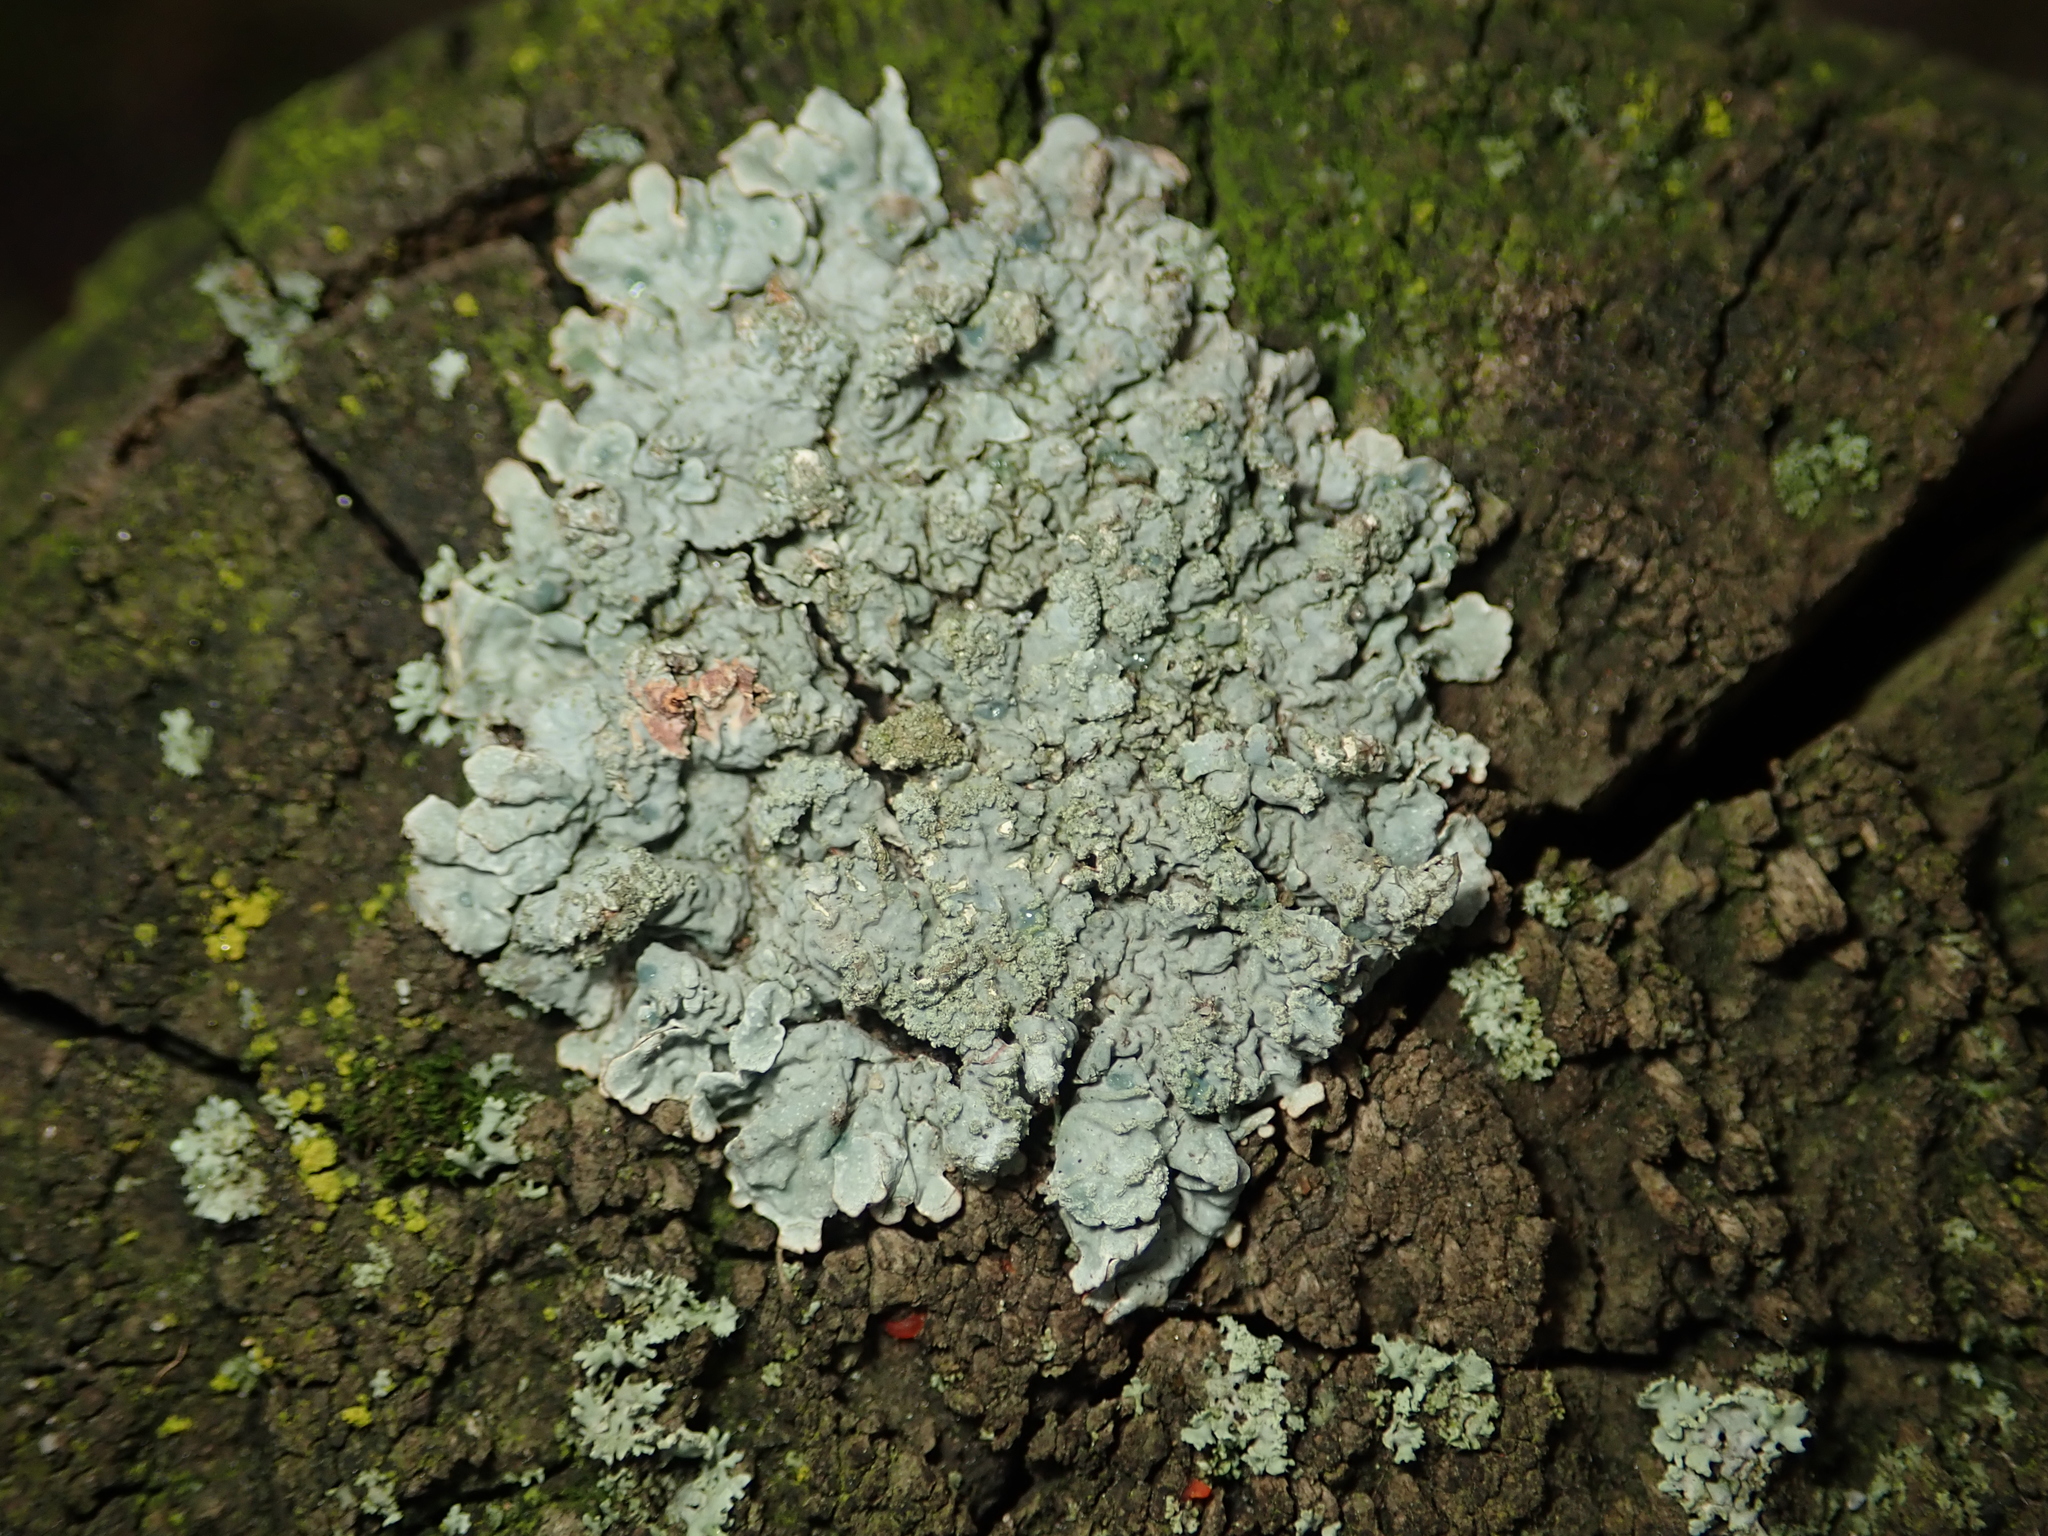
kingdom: Fungi
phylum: Ascomycota
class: Lecanoromycetes
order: Lecanorales
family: Parmeliaceae
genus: Parmelia
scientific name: Parmelia sulcata
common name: Netted shield lichen
